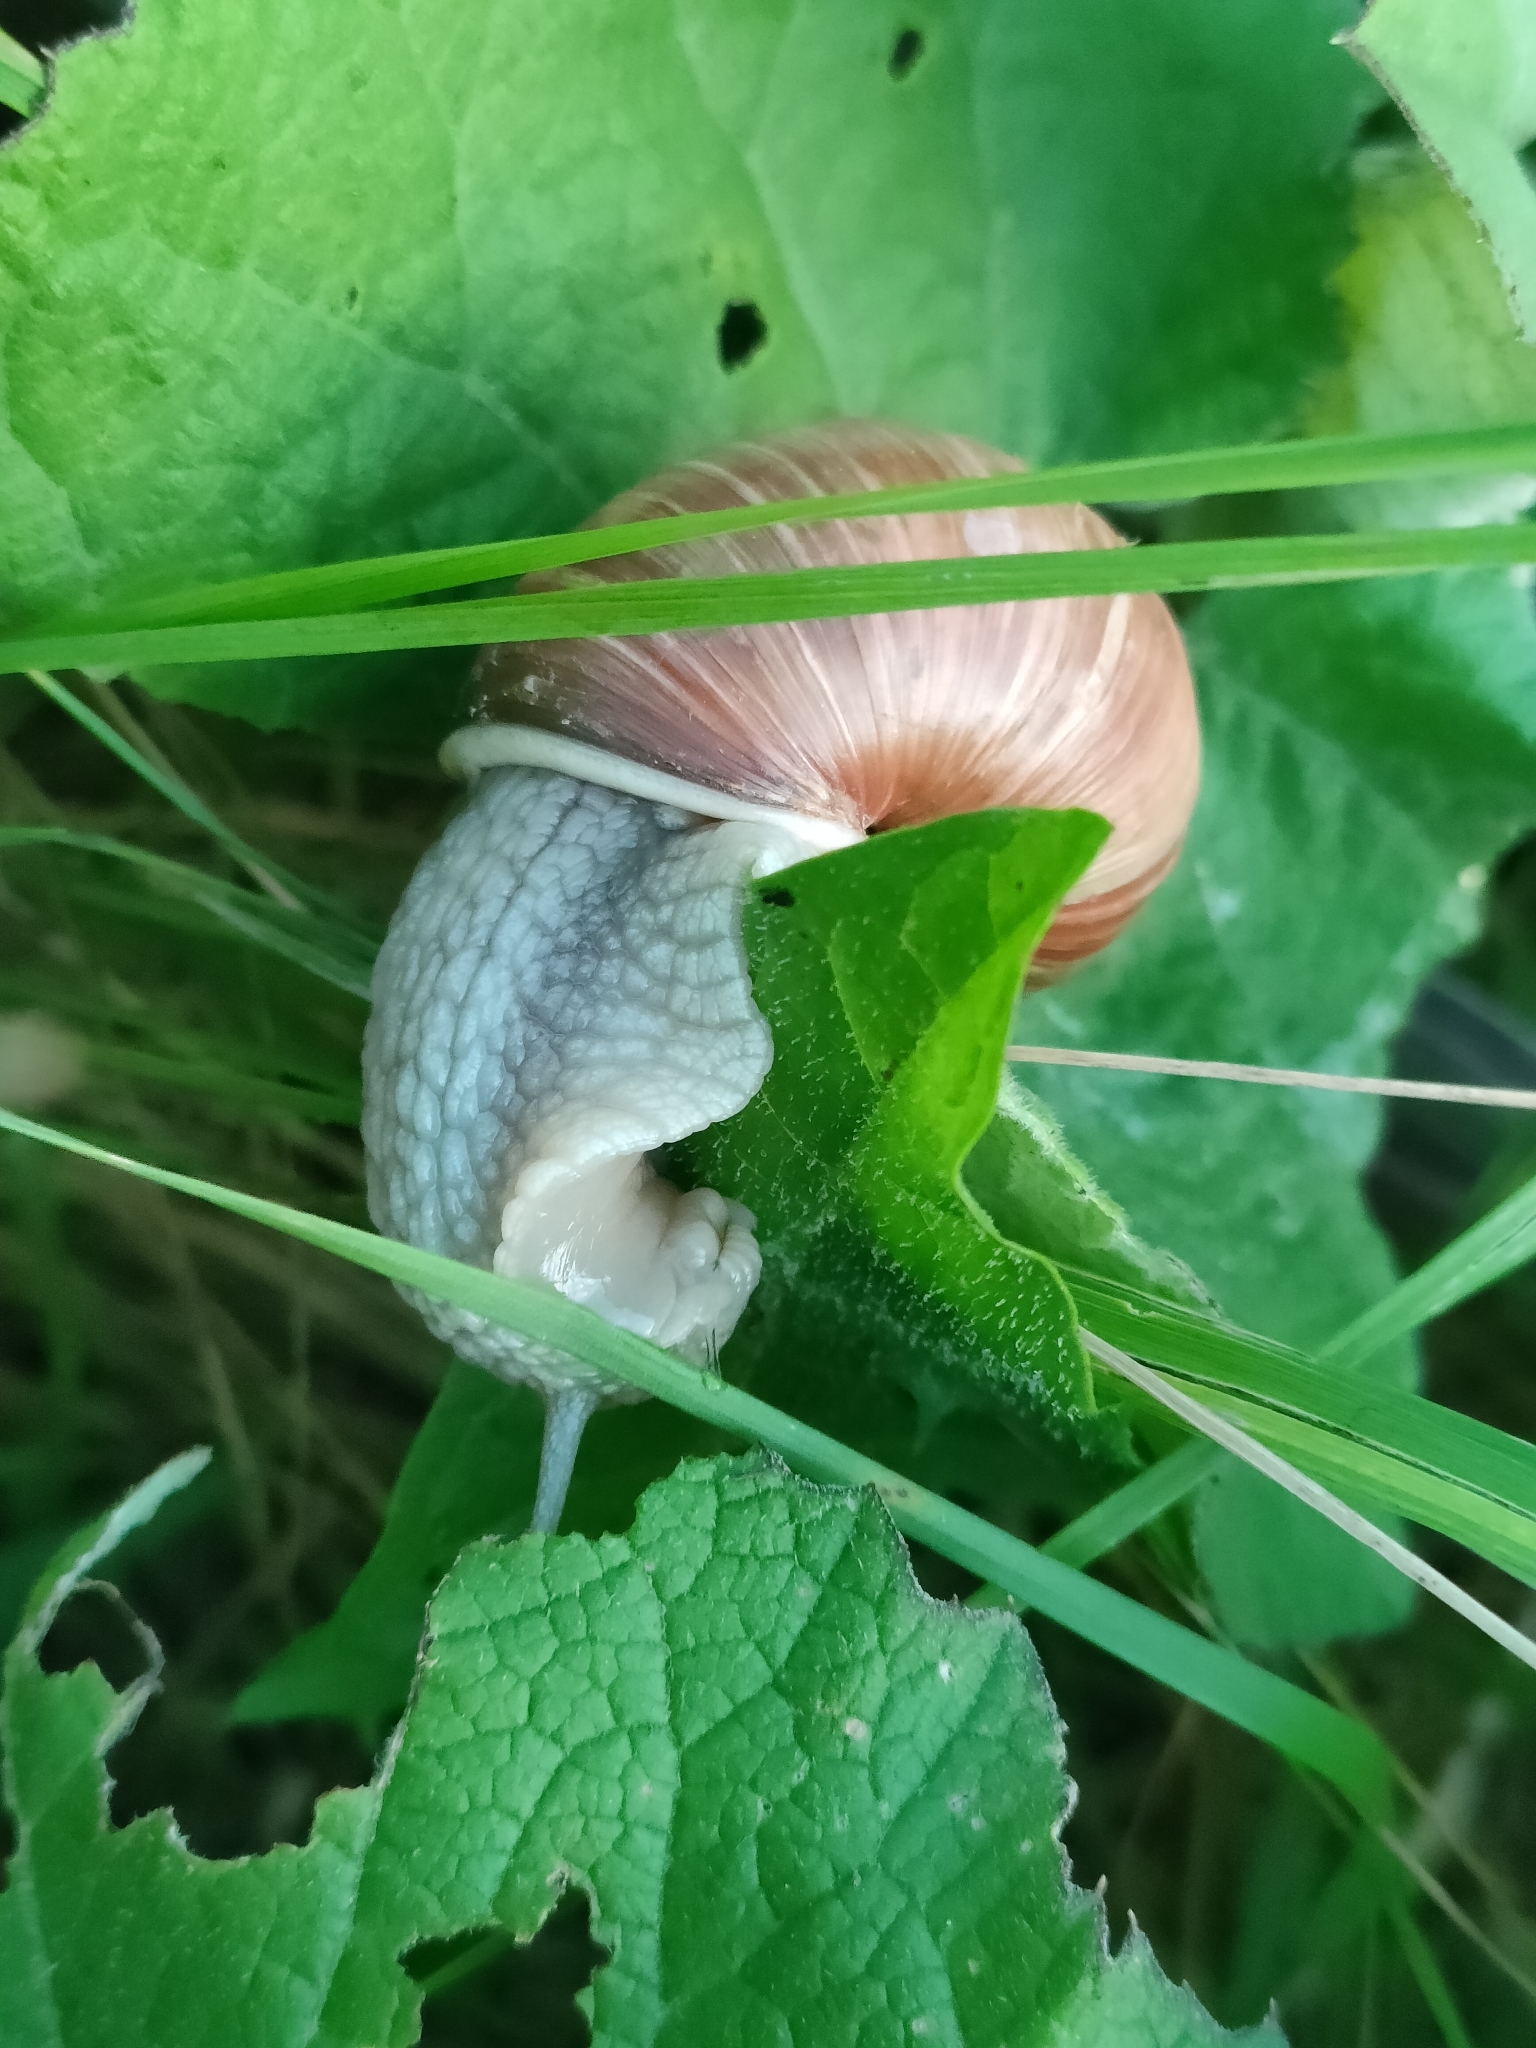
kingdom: Animalia
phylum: Mollusca
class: Gastropoda
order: Stylommatophora
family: Helicidae
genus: Helix
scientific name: Helix pomatia
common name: Roman snail
